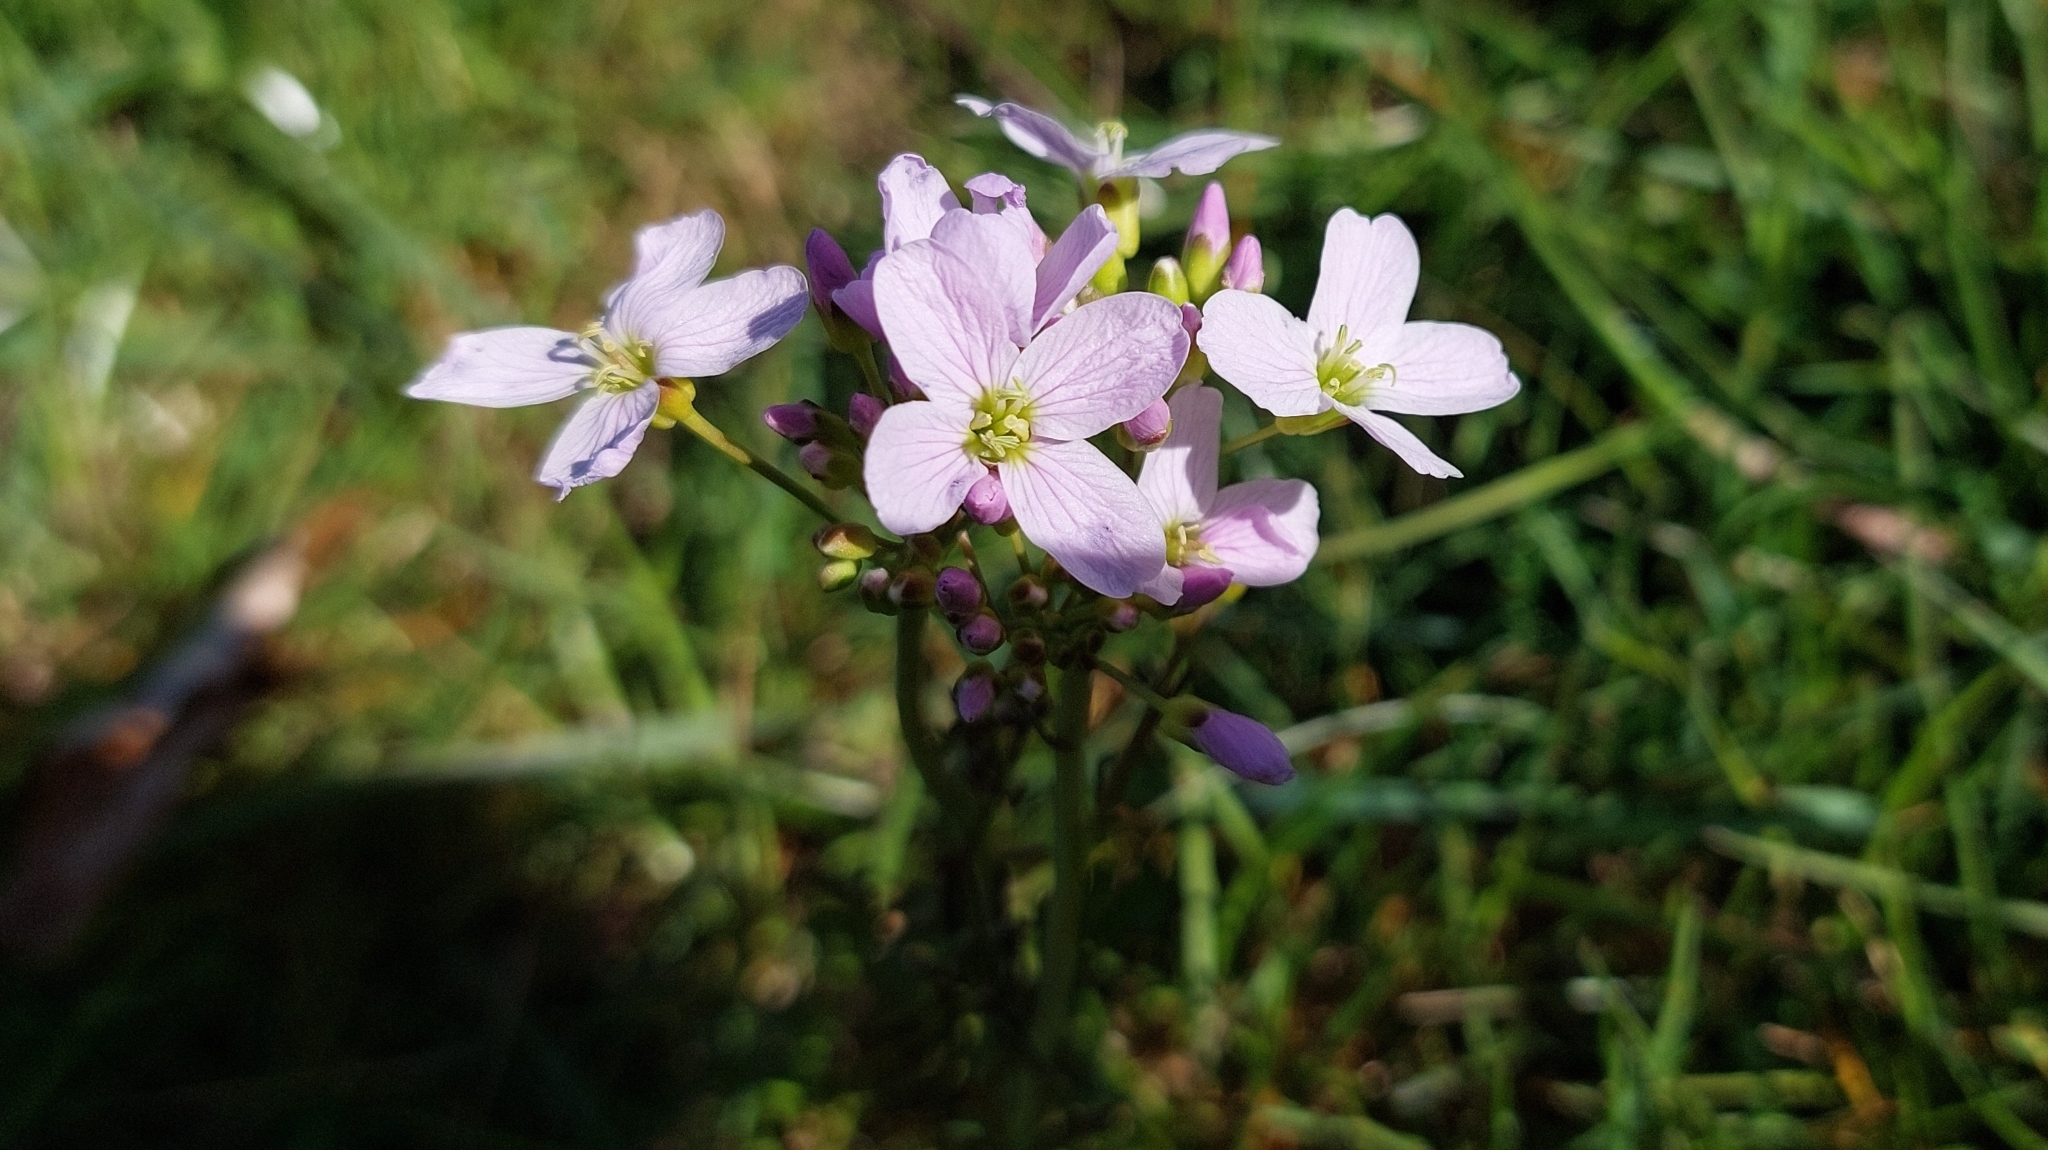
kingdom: Plantae
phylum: Tracheophyta
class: Magnoliopsida
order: Brassicales
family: Brassicaceae
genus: Cardamine
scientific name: Cardamine pratensis
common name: Cuckoo flower
